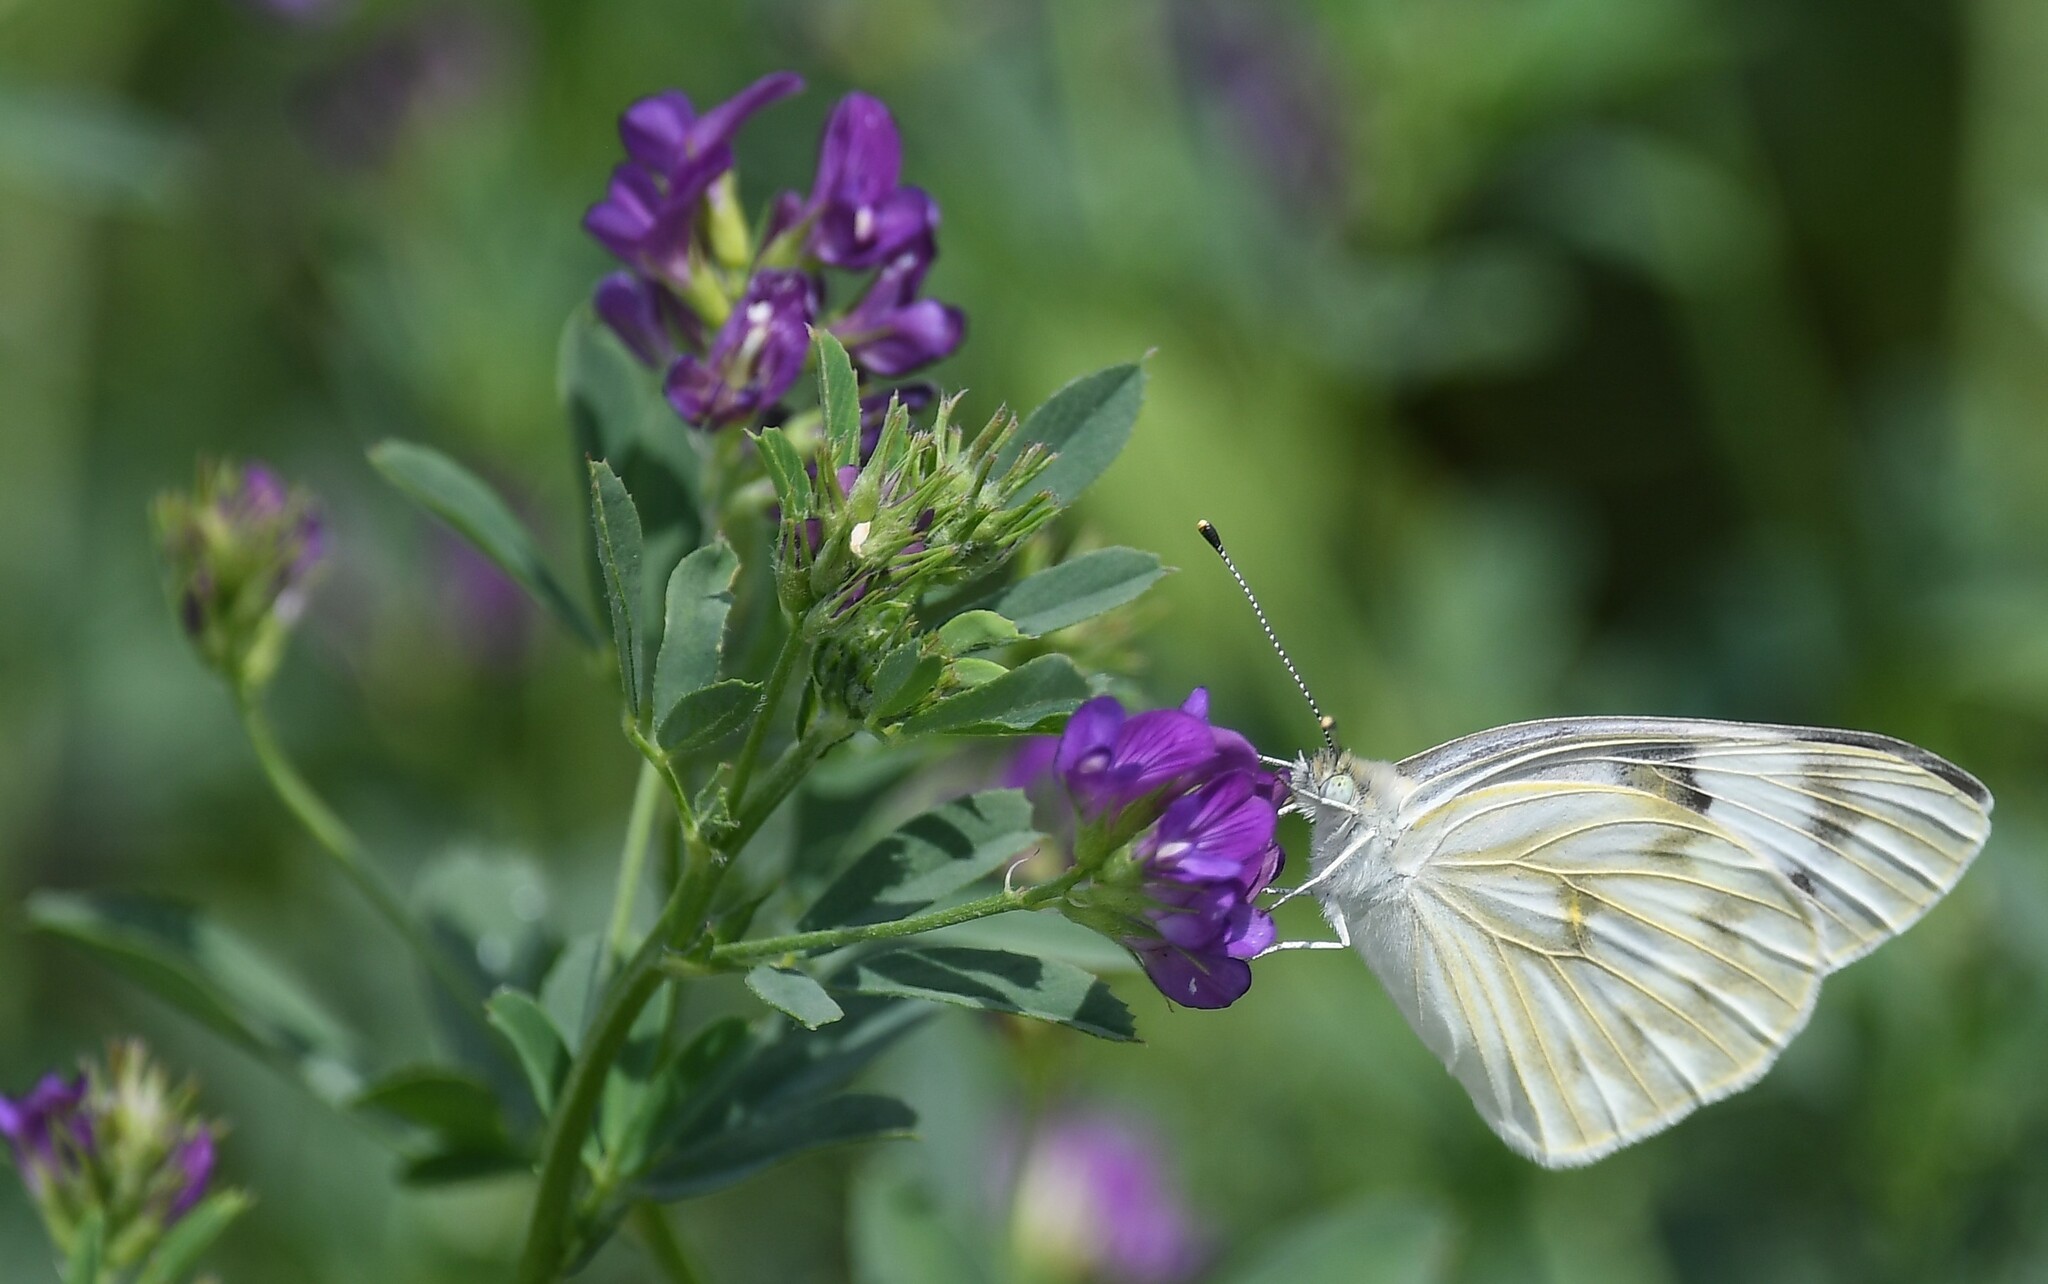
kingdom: Animalia
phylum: Arthropoda
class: Insecta
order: Lepidoptera
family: Pieridae
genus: Pontia
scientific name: Pontia protodice
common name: Checkered white
